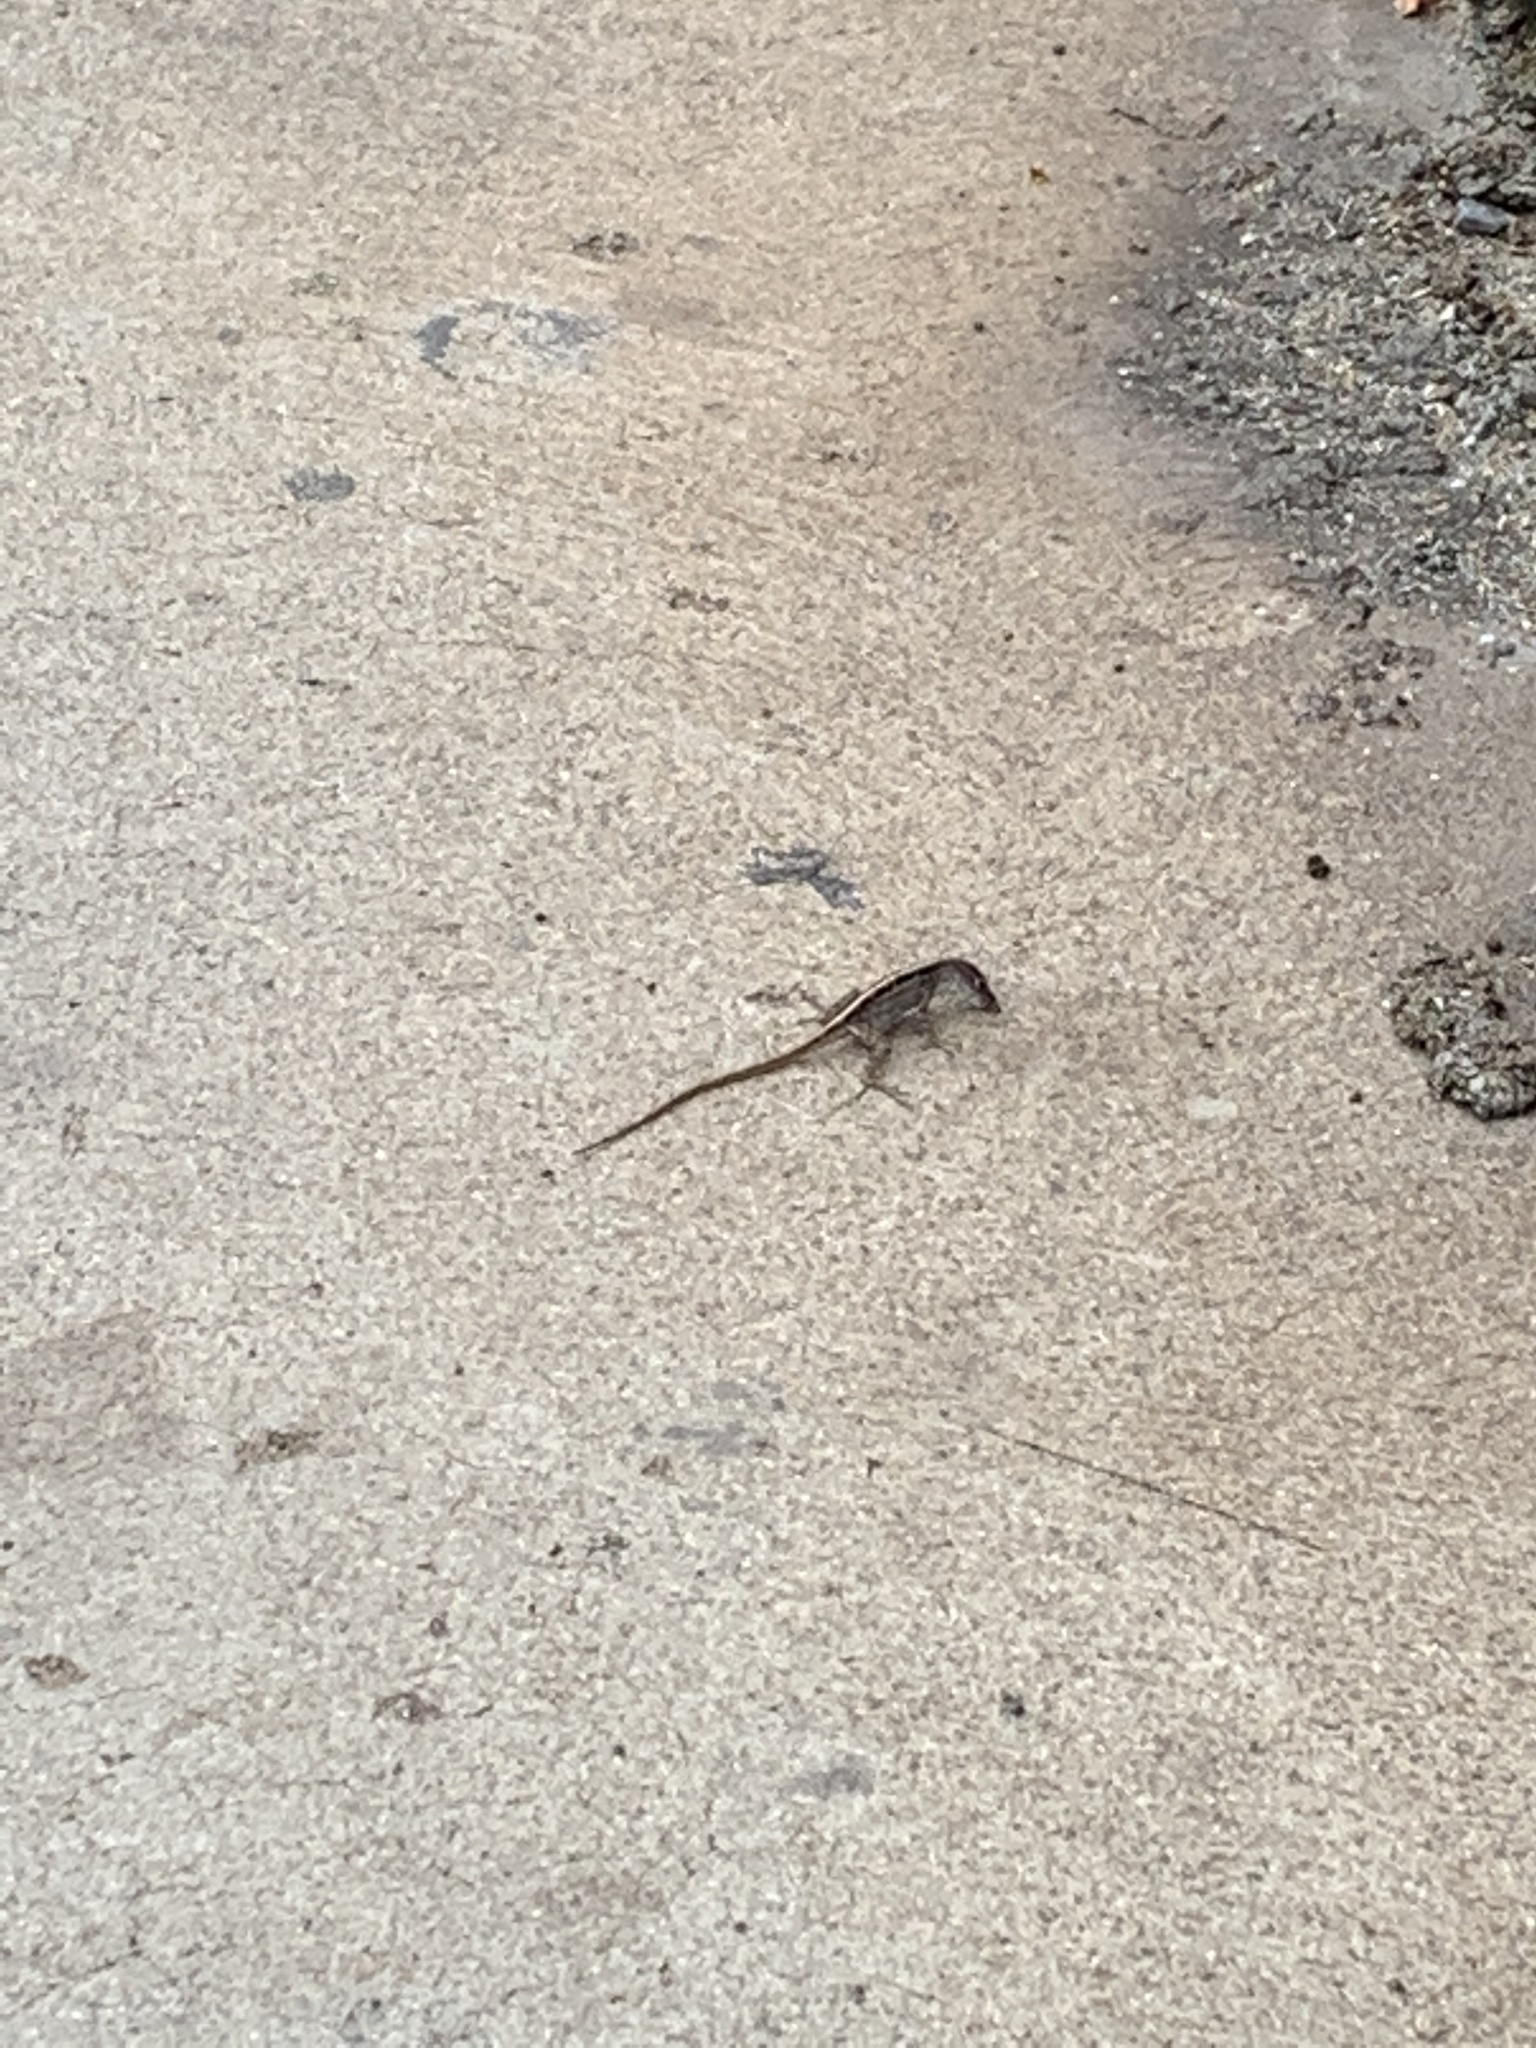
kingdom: Animalia
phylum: Chordata
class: Squamata
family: Dactyloidae
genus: Anolis
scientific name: Anolis sagrei
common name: Brown anole
